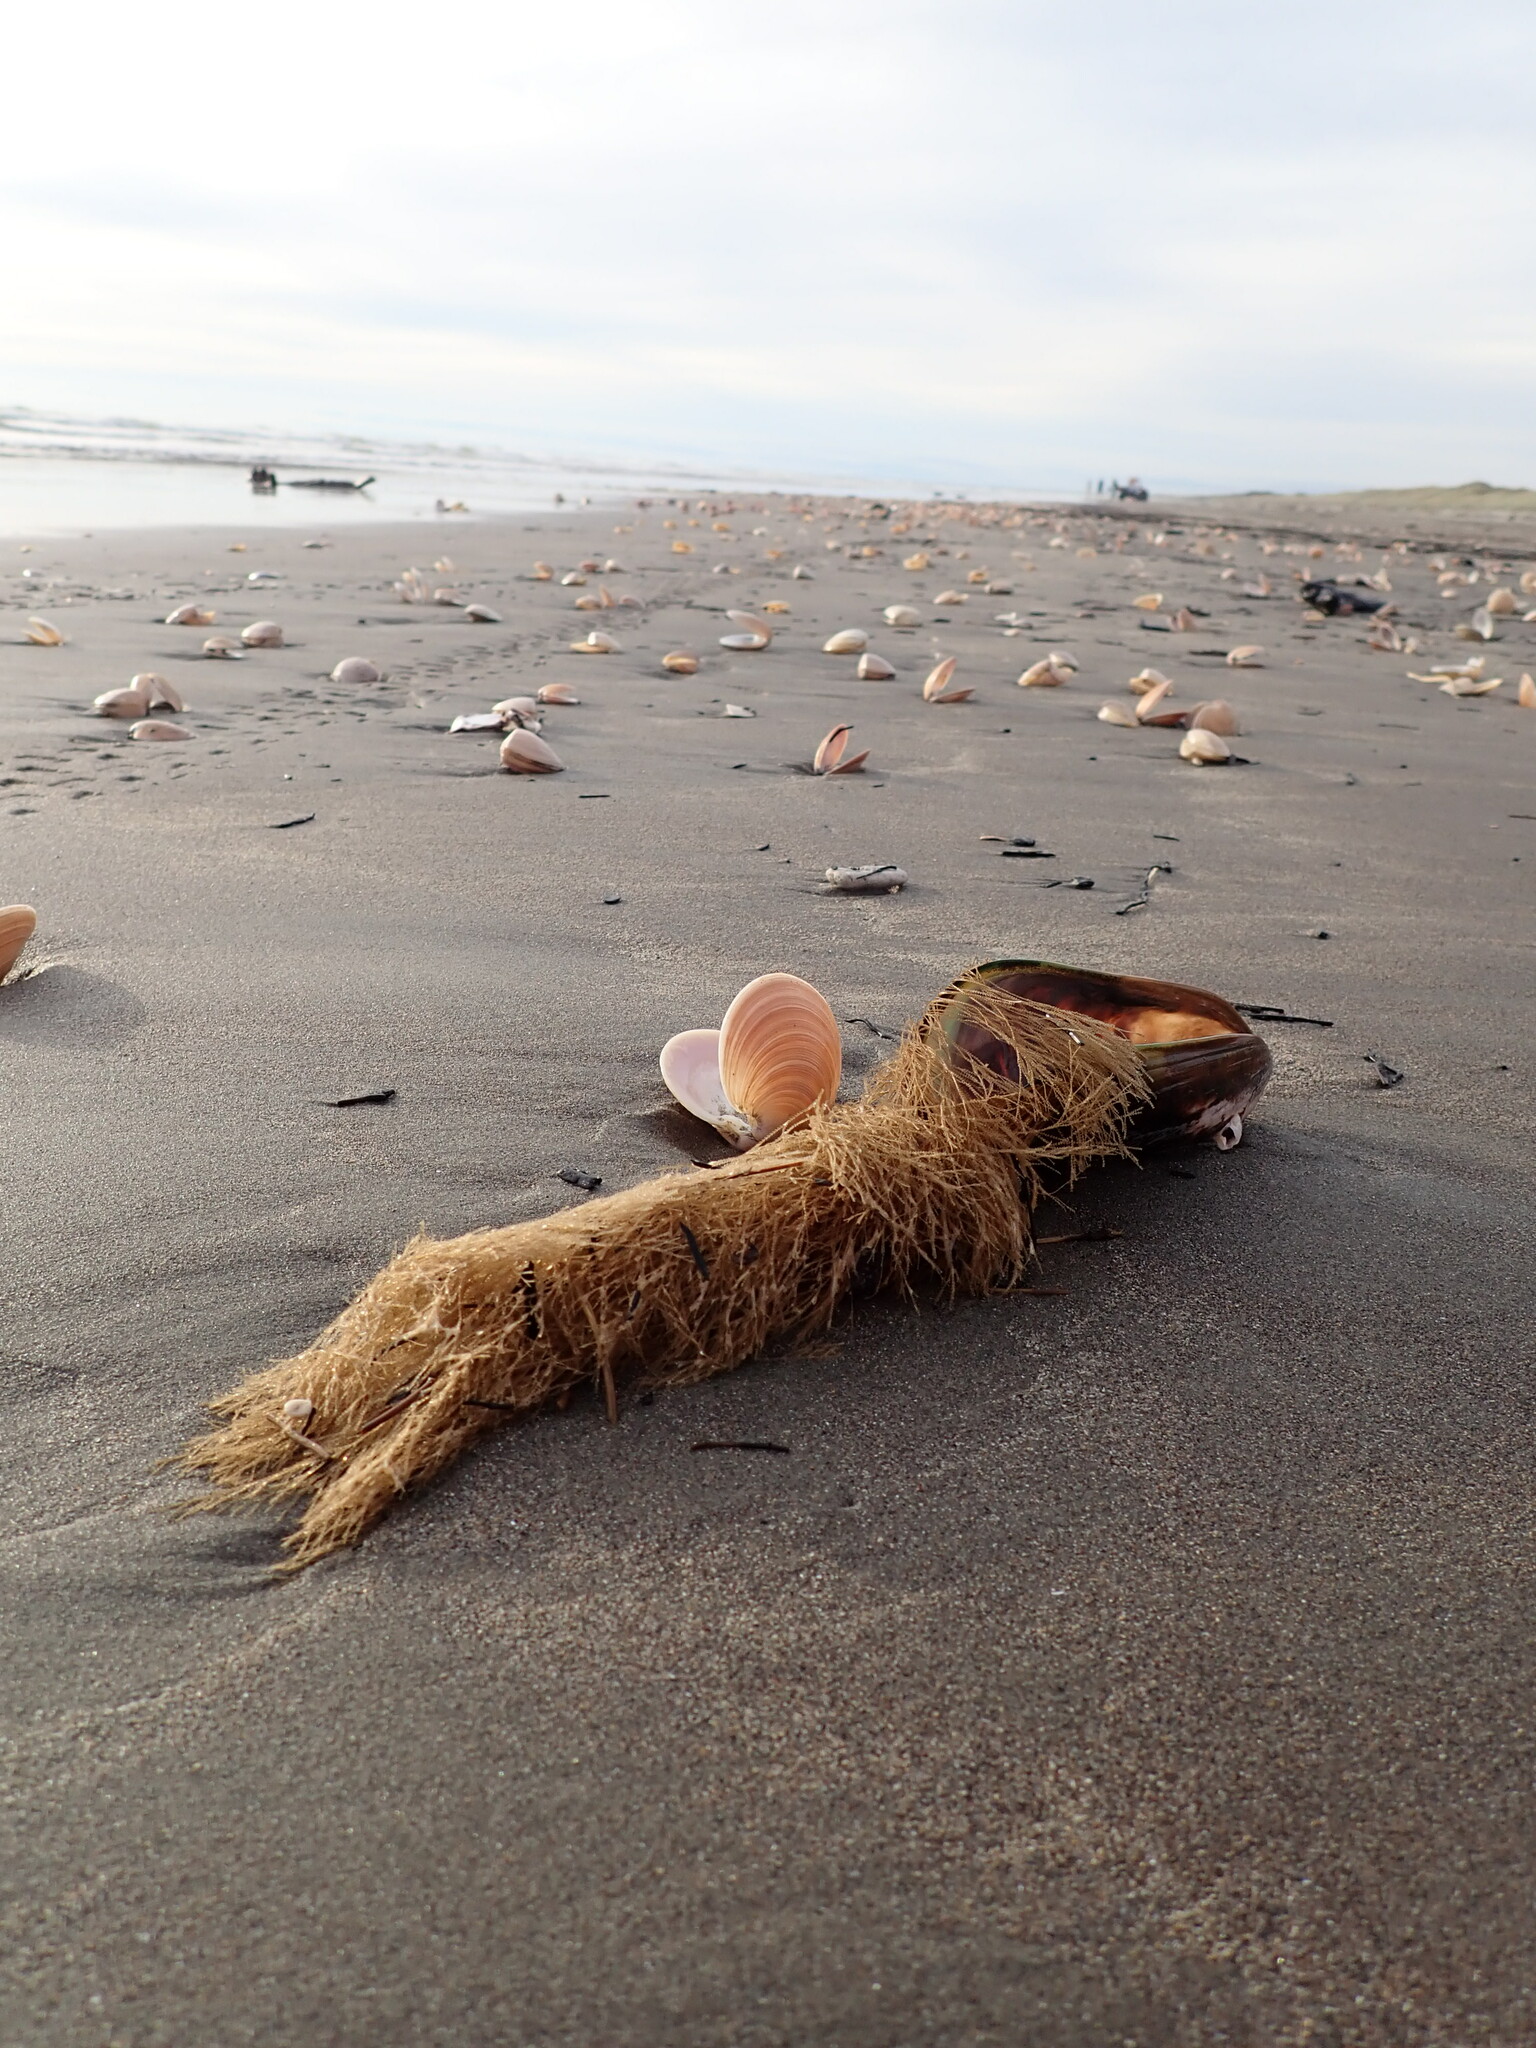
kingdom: Animalia
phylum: Cnidaria
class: Hydrozoa
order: Leptothecata
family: Sertulariidae
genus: Amphisbetia
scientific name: Amphisbetia bispinosa
